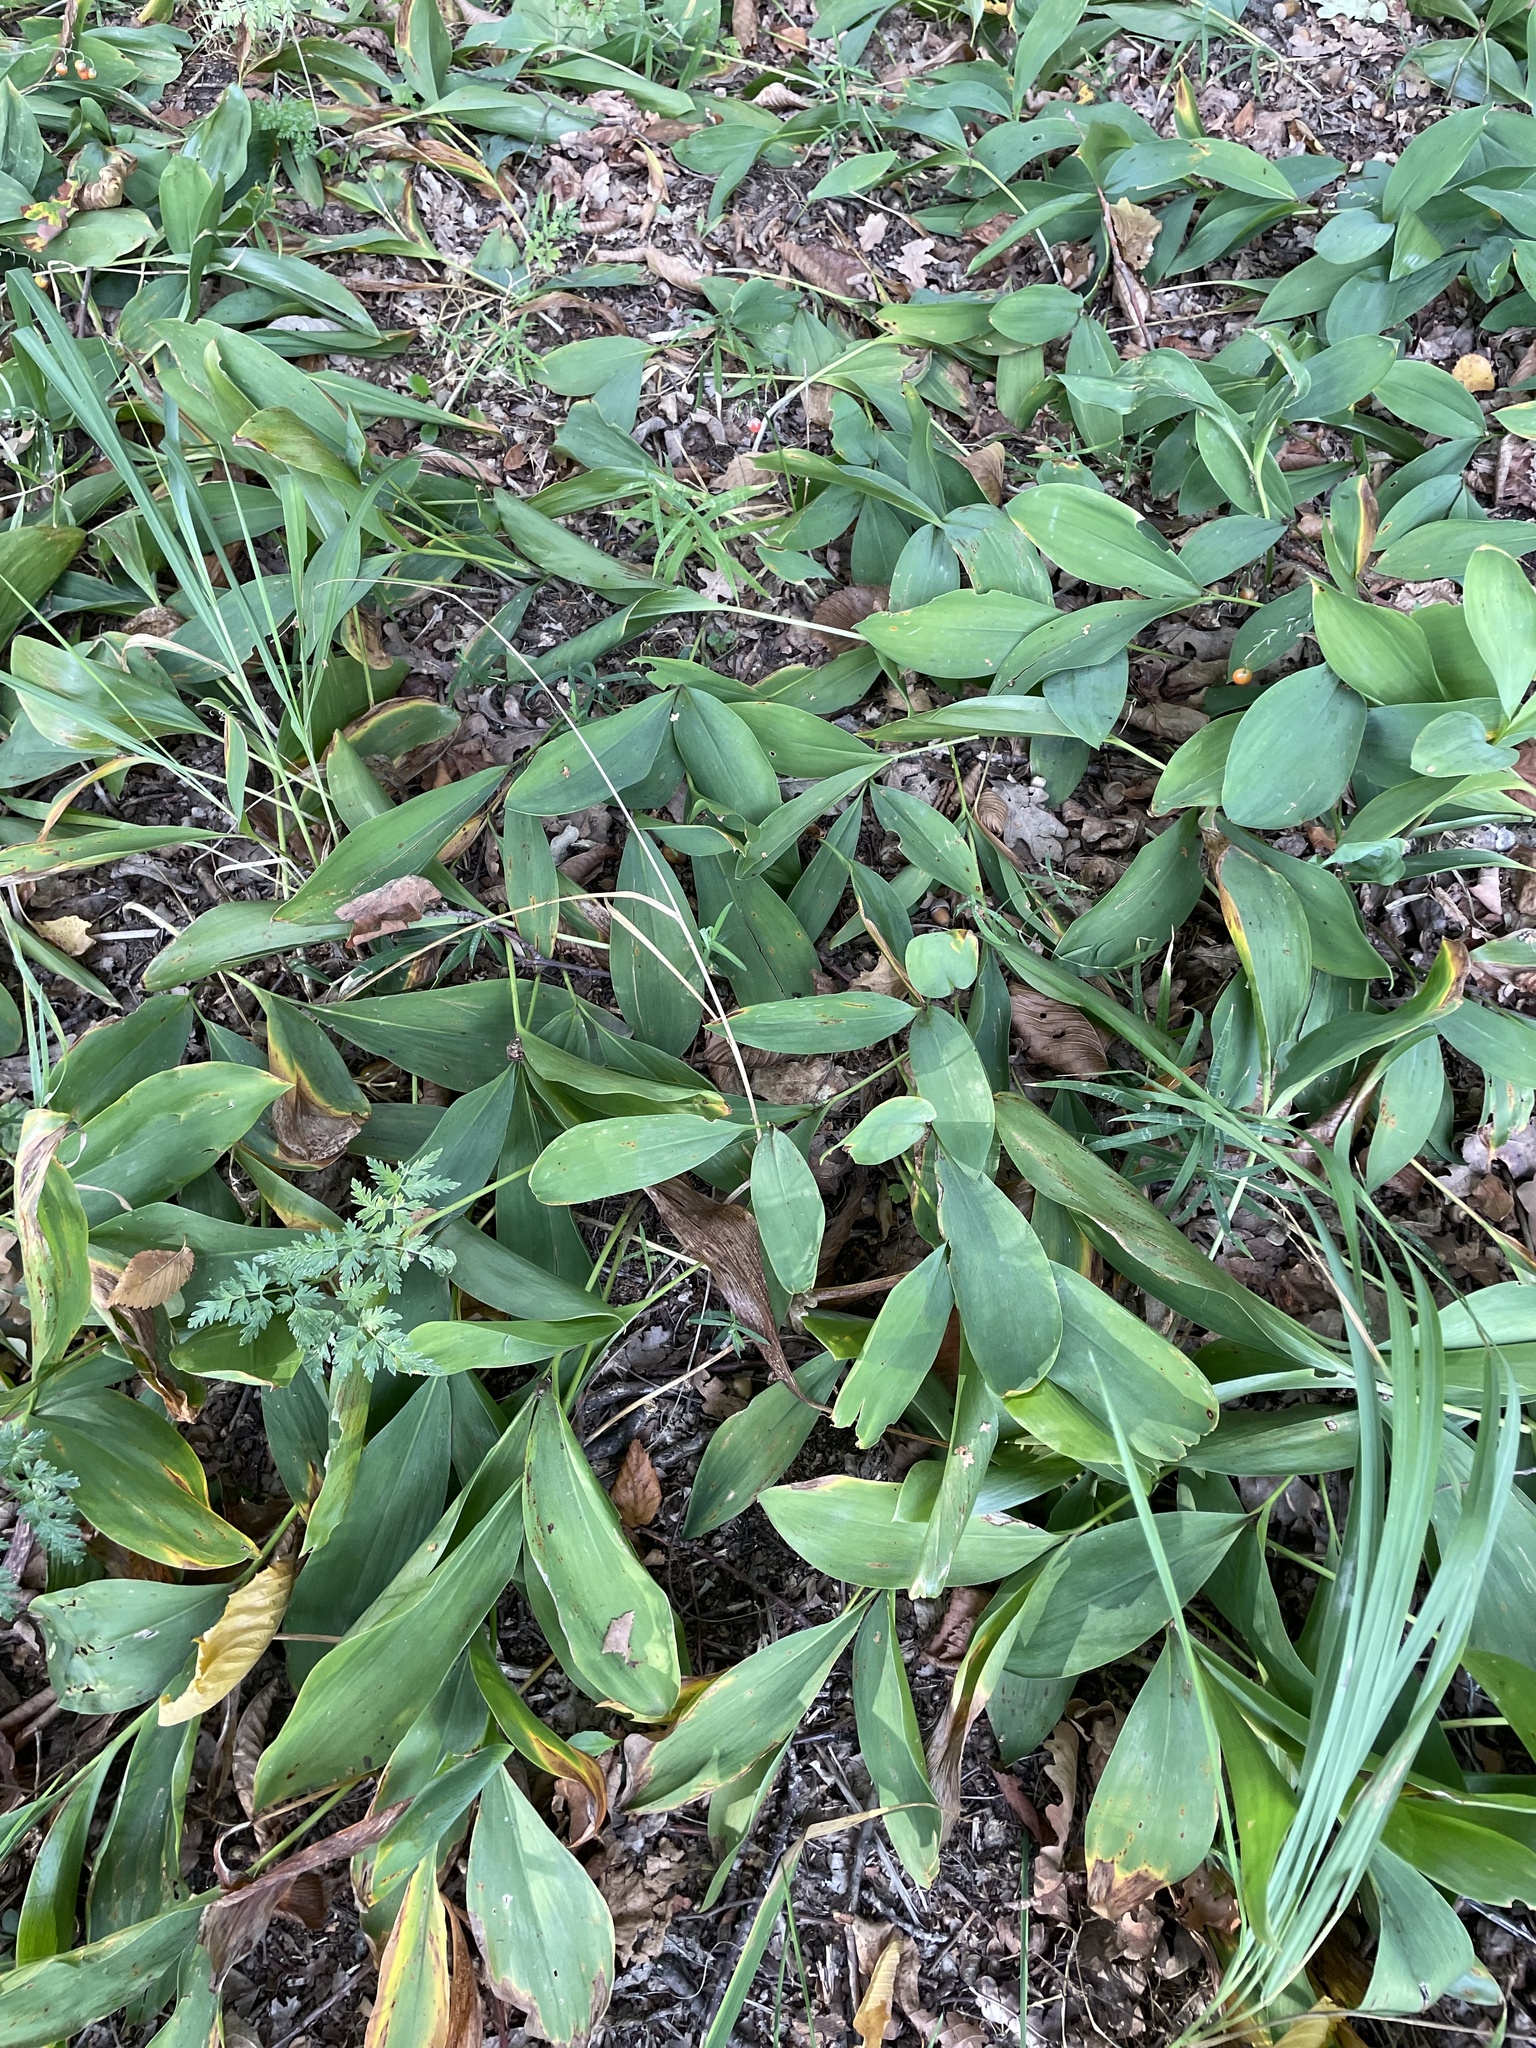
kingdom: Plantae
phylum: Tracheophyta
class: Liliopsida
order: Asparagales
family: Asparagaceae
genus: Convallaria
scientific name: Convallaria majalis
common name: Lily-of-the-valley
